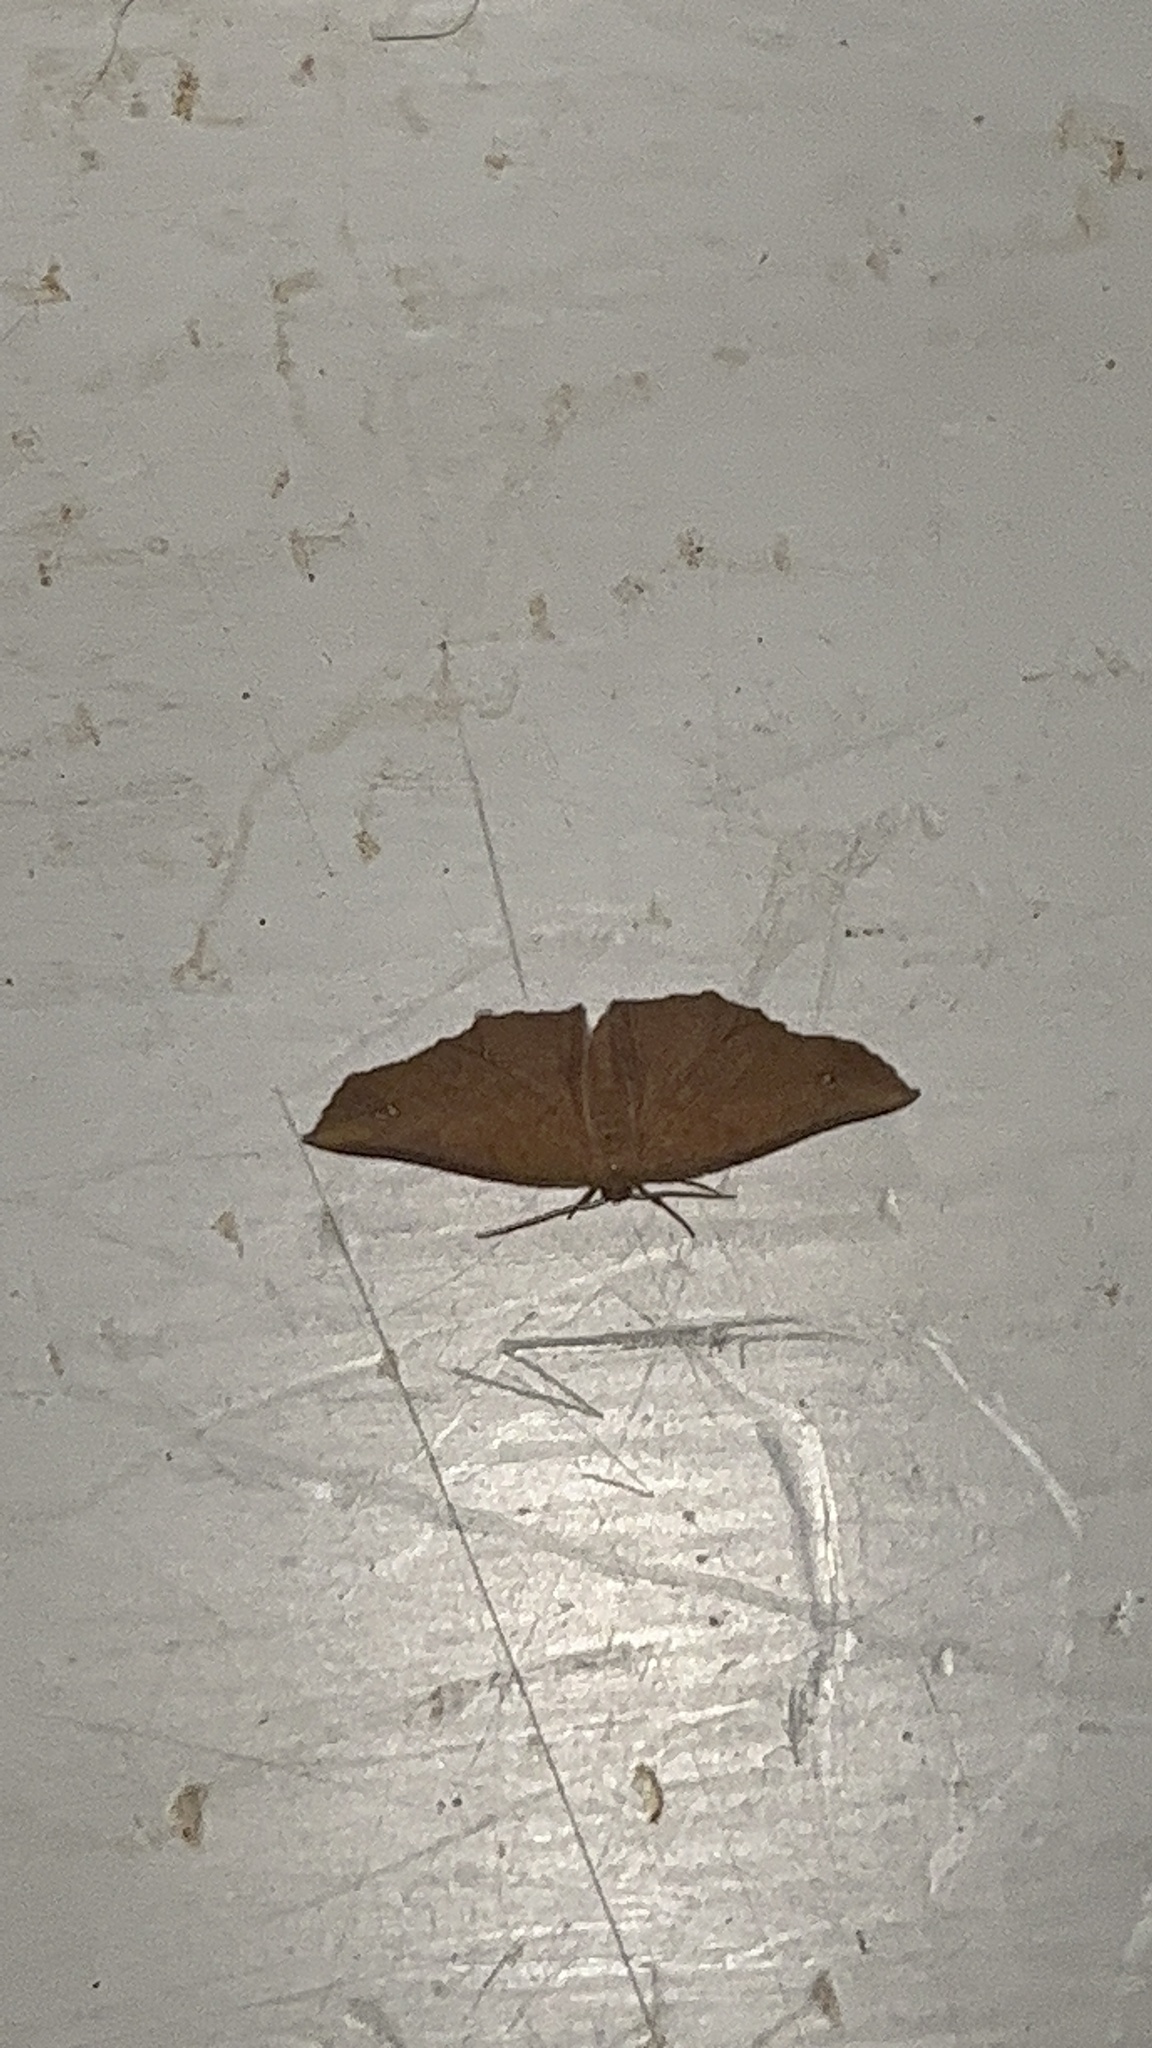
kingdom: Animalia
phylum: Arthropoda
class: Insecta
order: Lepidoptera
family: Geometridae
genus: Xyridacma
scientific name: Xyridacma ustaria
